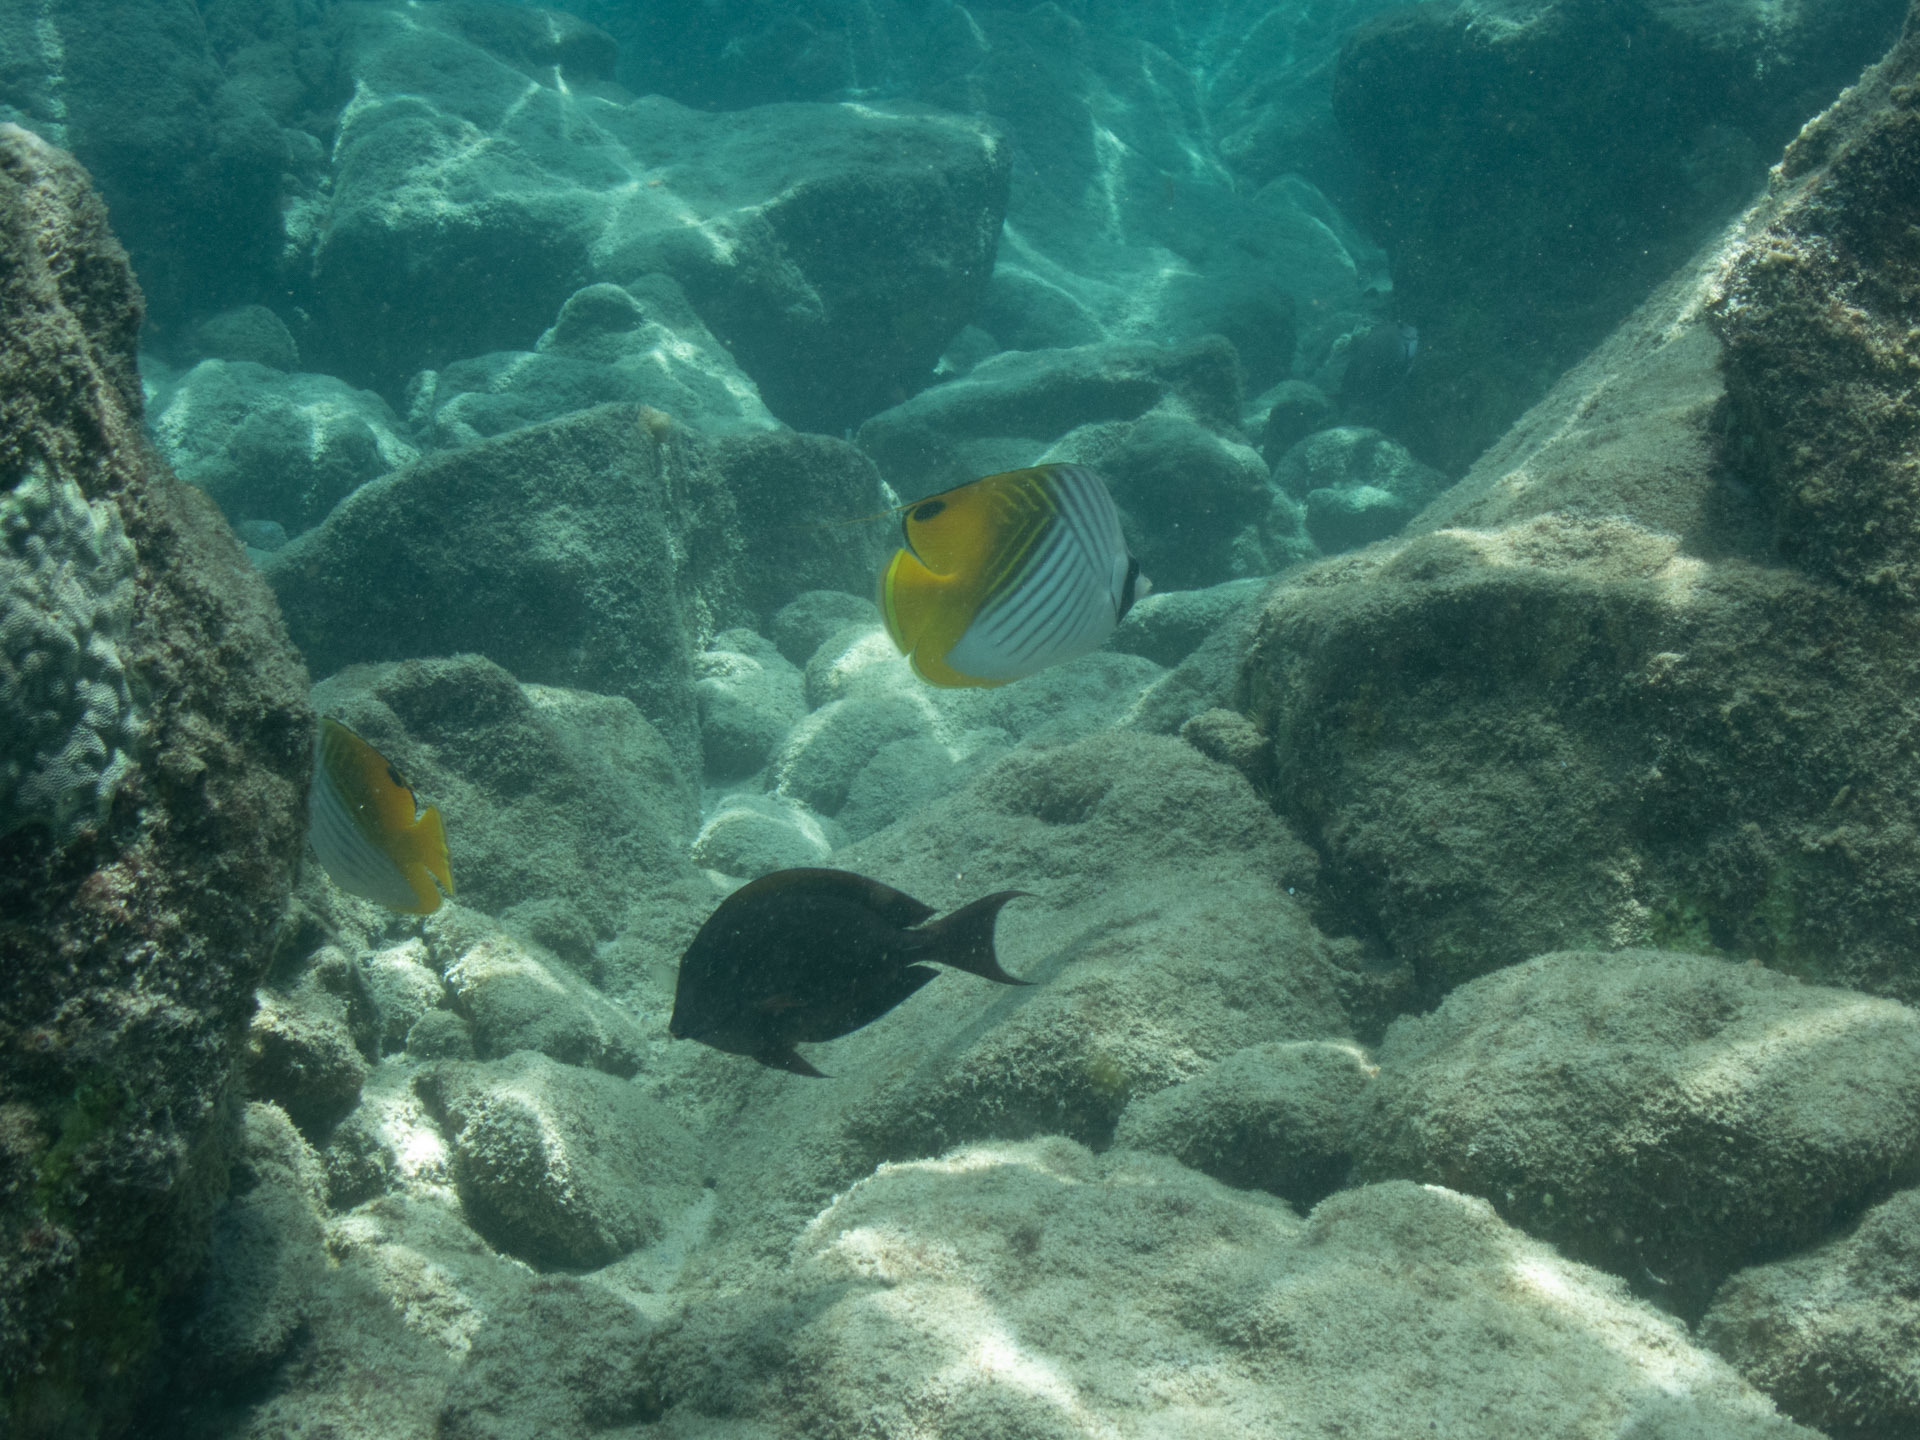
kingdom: Animalia
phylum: Chordata
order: Perciformes
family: Chaetodontidae
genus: Chaetodon
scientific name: Chaetodon auriga
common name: Threadfin butterflyfish
